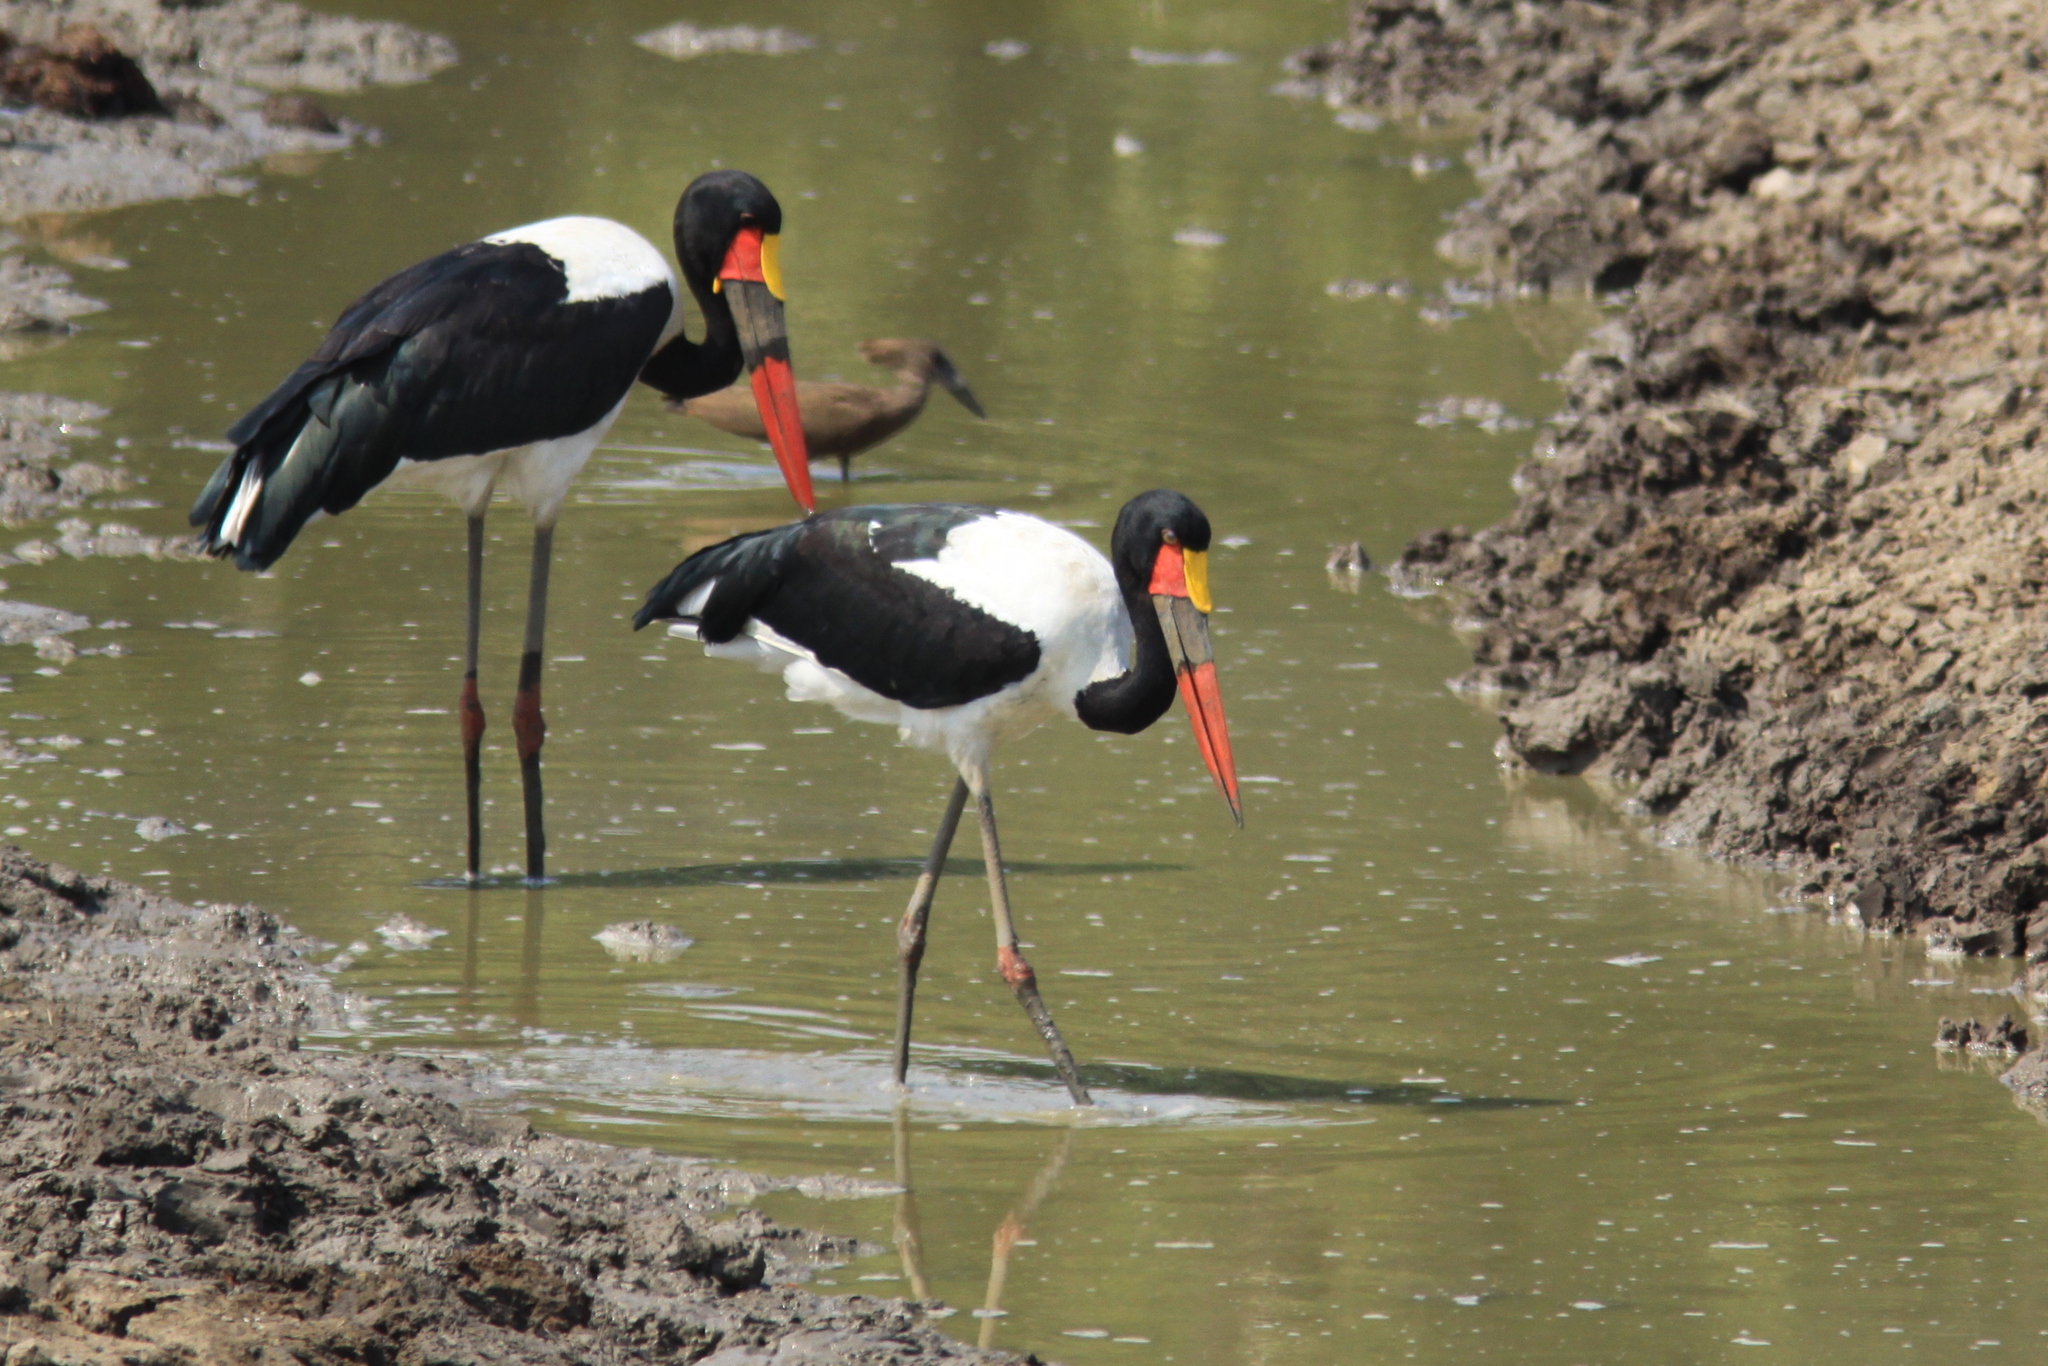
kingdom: Animalia
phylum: Chordata
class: Aves
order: Ciconiiformes
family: Ciconiidae
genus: Ephippiorhynchus
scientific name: Ephippiorhynchus senegalensis
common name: Saddle-billed stork
